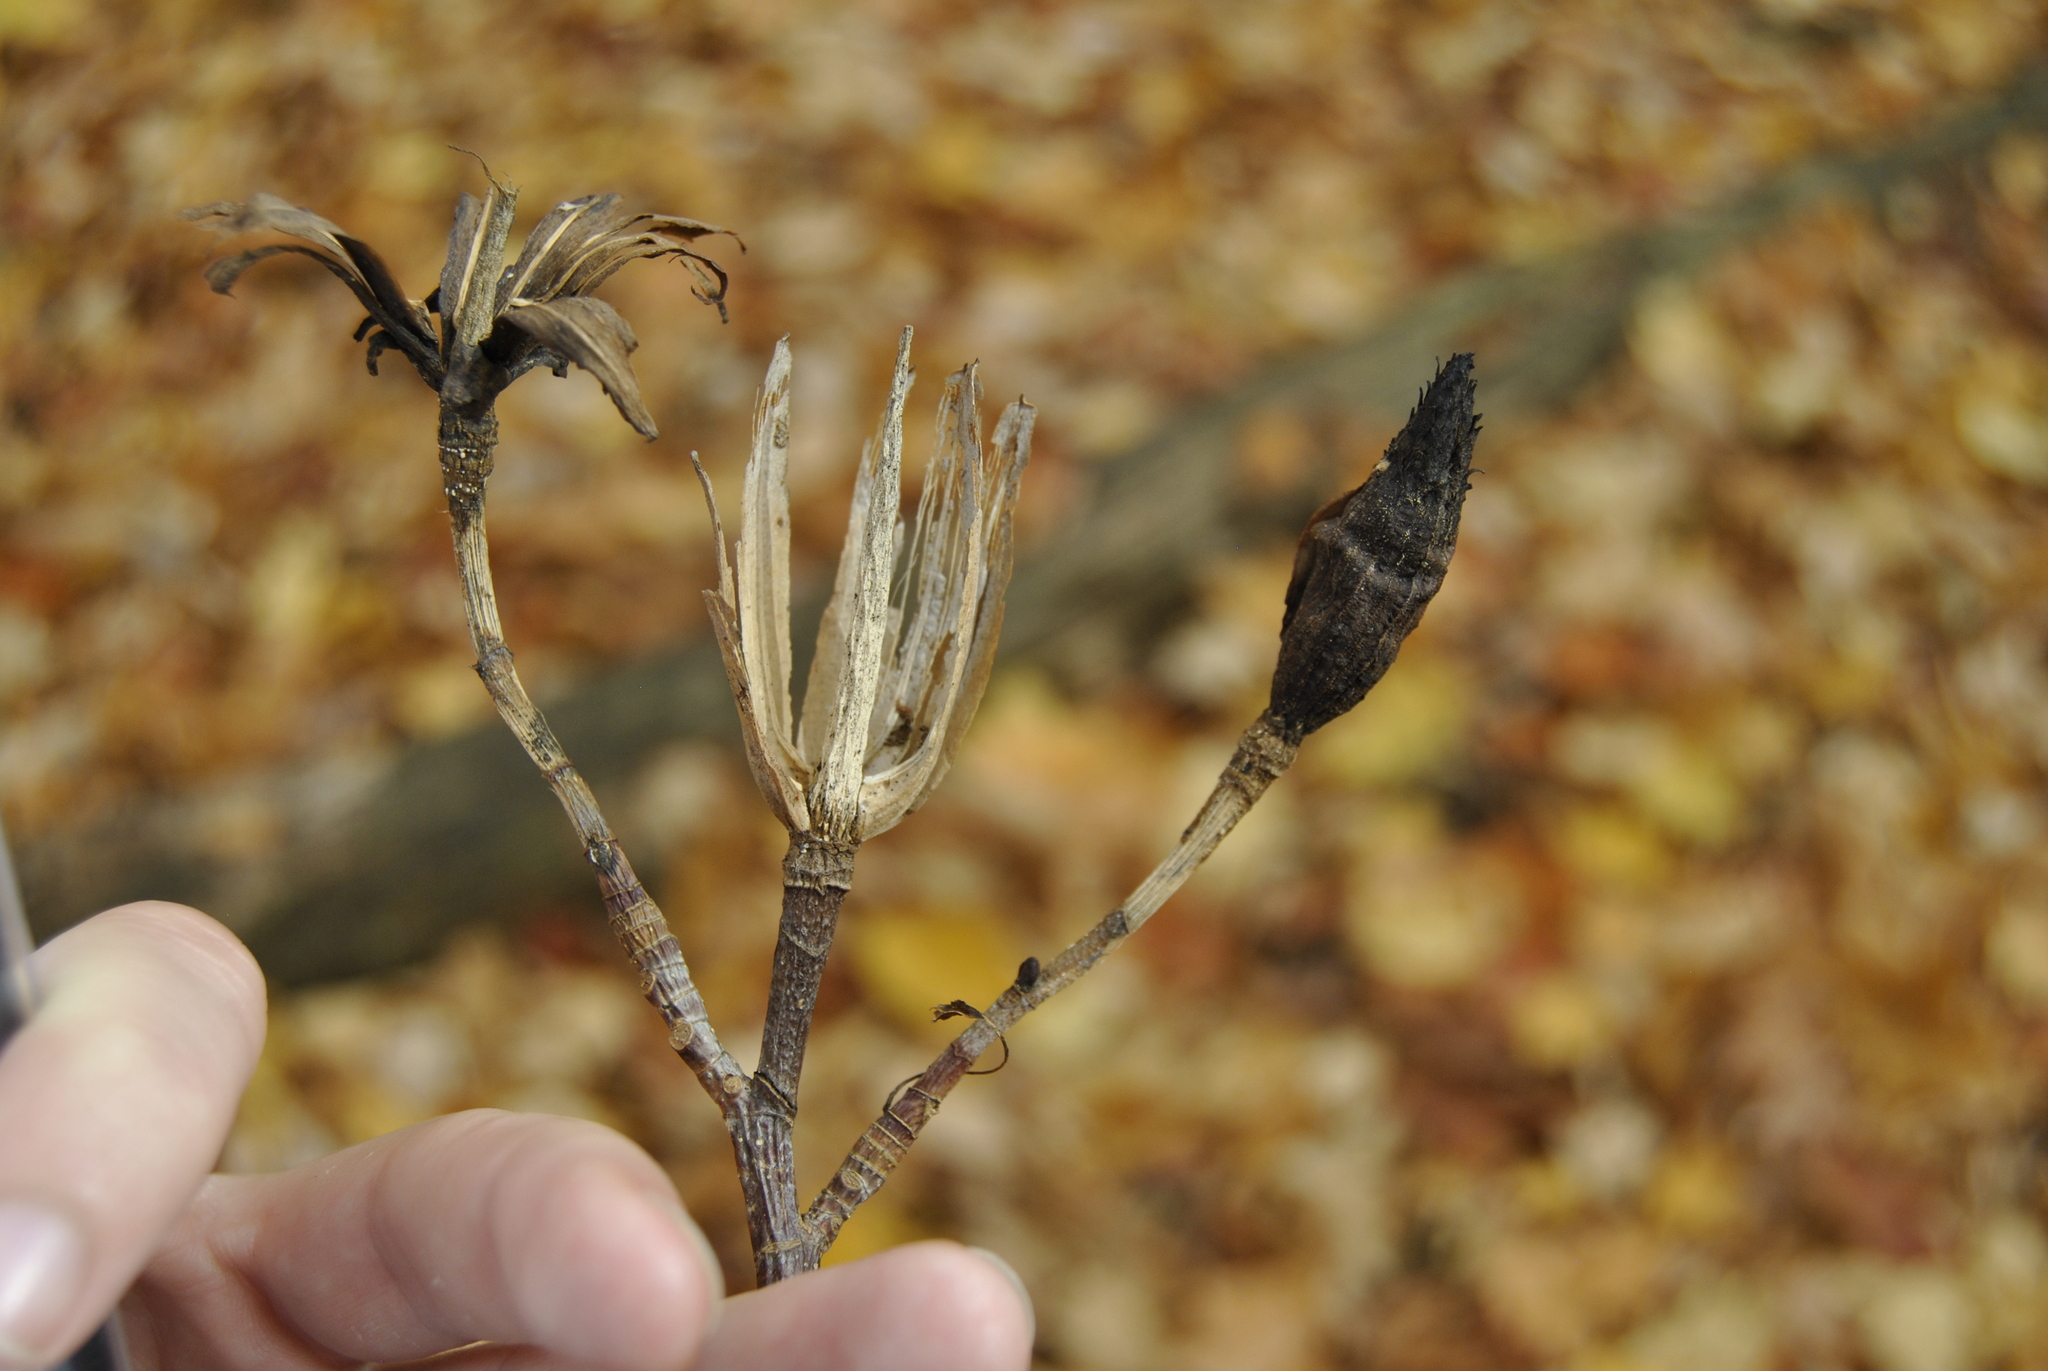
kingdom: Plantae
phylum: Tracheophyta
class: Magnoliopsida
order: Magnoliales
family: Magnoliaceae
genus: Liriodendron
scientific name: Liriodendron tulipifera
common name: Tulip tree
